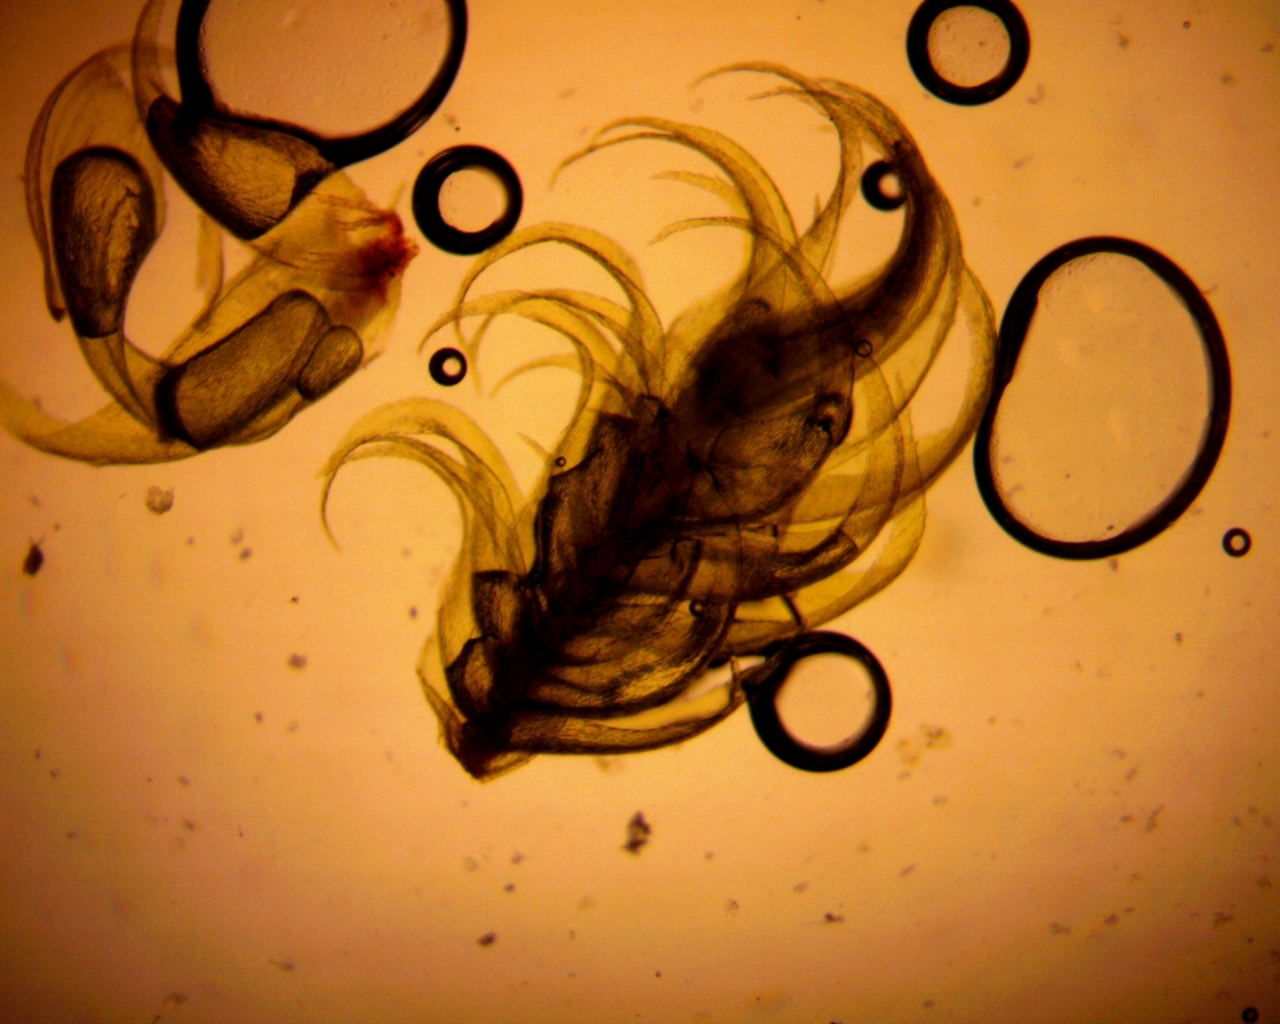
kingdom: Plantae
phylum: Bryophyta
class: Bryopsida
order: Hypnales
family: Callicladiaceae
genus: Callicladium
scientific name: Callicladium imponens
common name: Brocade moss
